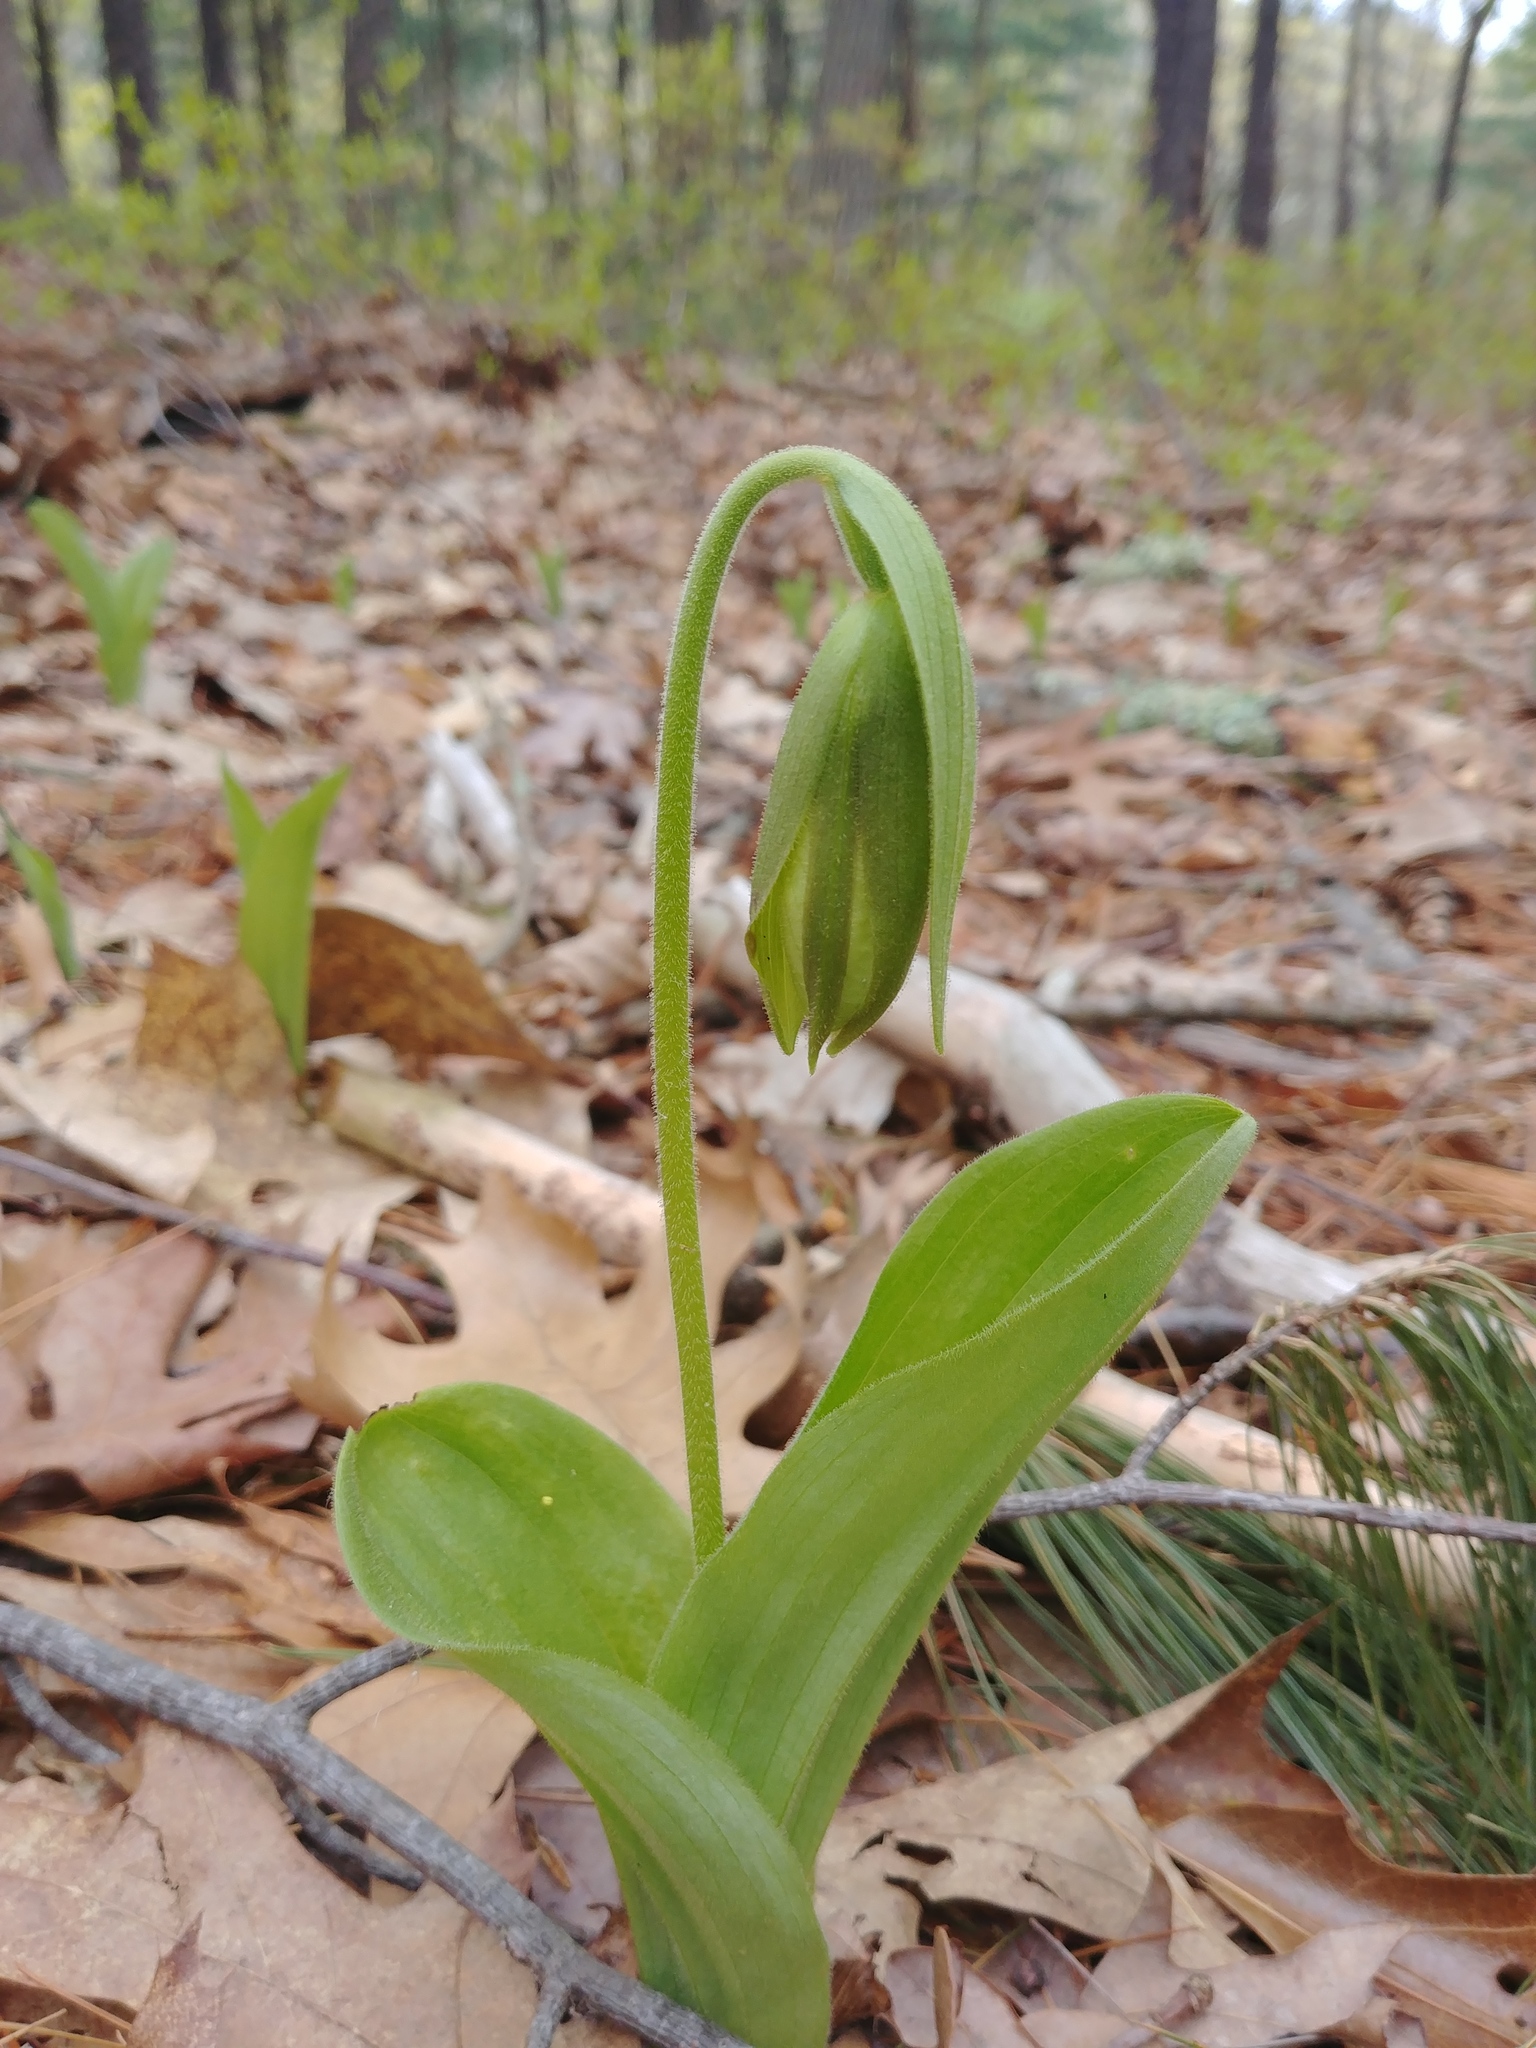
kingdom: Plantae
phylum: Tracheophyta
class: Liliopsida
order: Asparagales
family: Orchidaceae
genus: Cypripedium
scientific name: Cypripedium acaule
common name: Pink lady's-slipper
